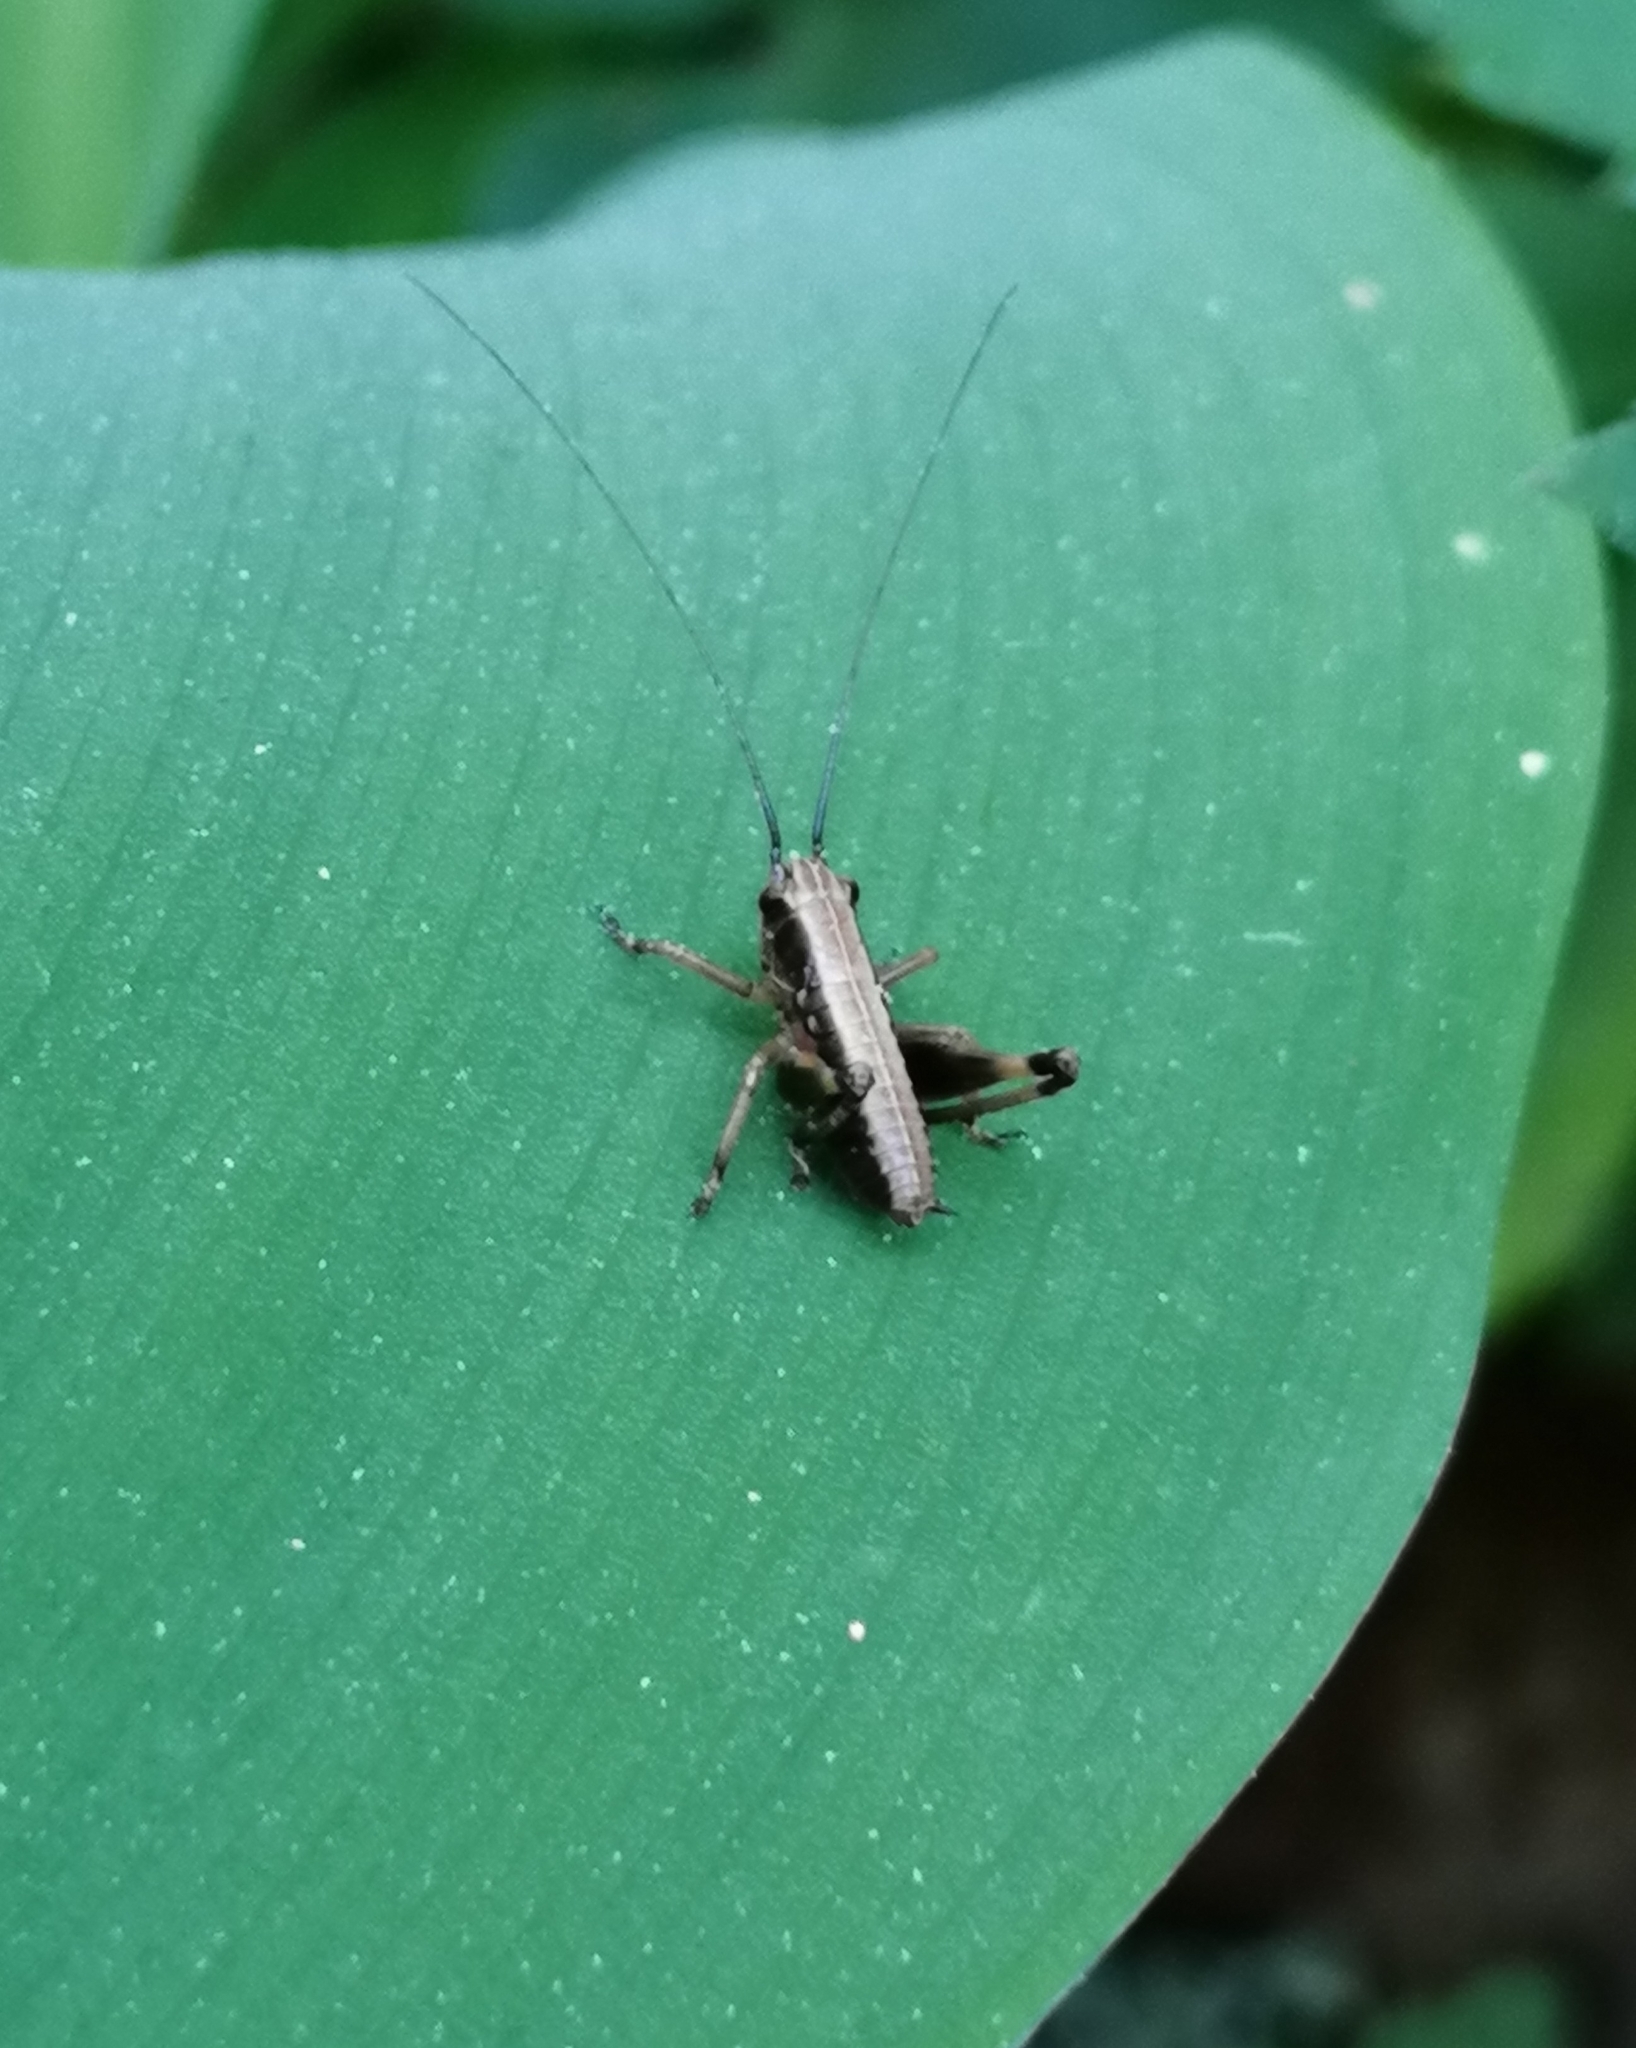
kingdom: Animalia
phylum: Arthropoda
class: Insecta
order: Orthoptera
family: Tettigoniidae
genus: Pholidoptera
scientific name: Pholidoptera griseoaptera
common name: Dark bush-cricket
